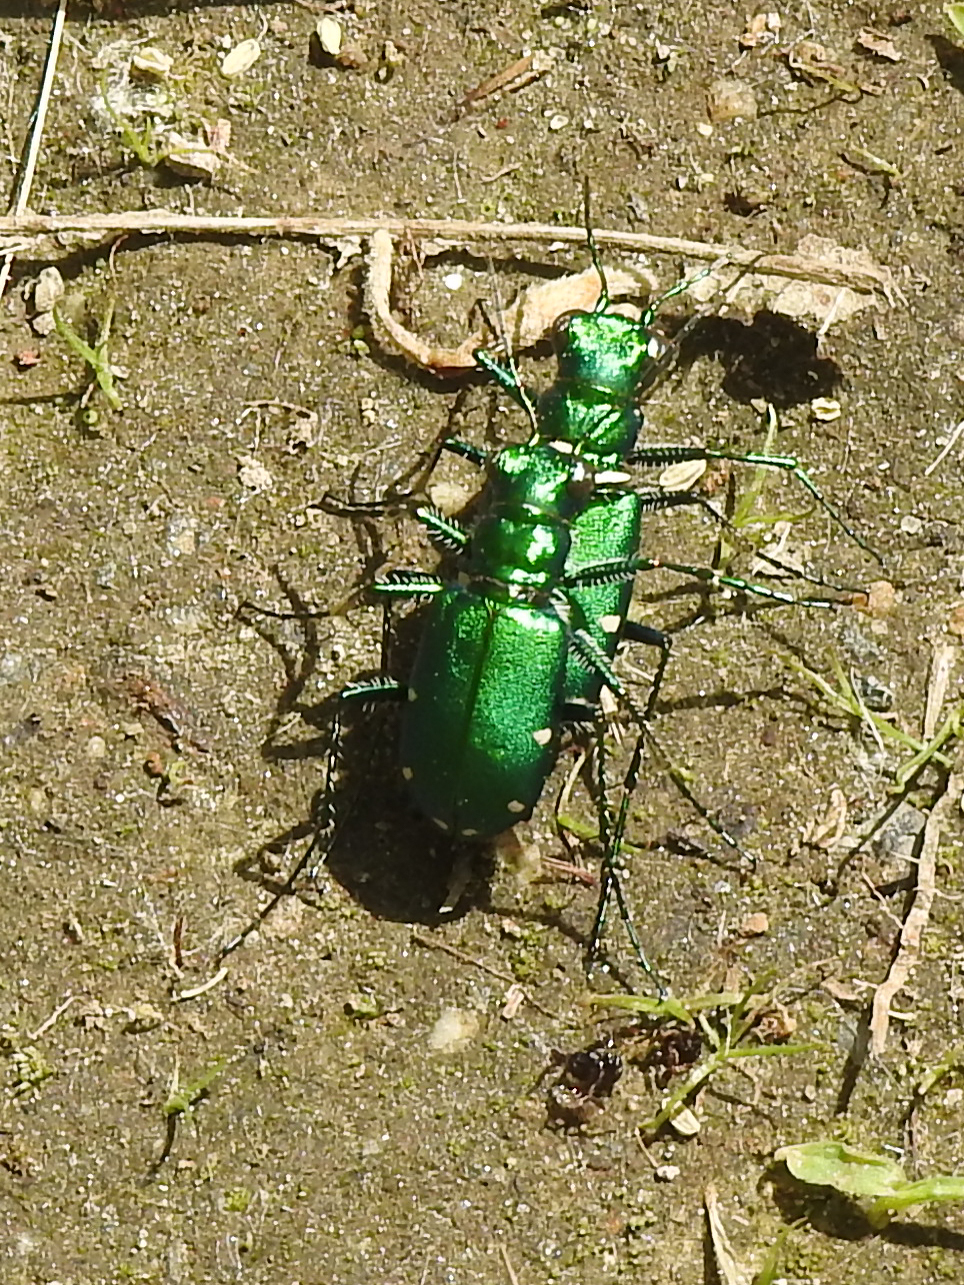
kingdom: Animalia
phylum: Arthropoda
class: Insecta
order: Coleoptera
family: Carabidae
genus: Cicindela
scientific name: Cicindela sexguttata
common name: Six-spotted tiger beetle
